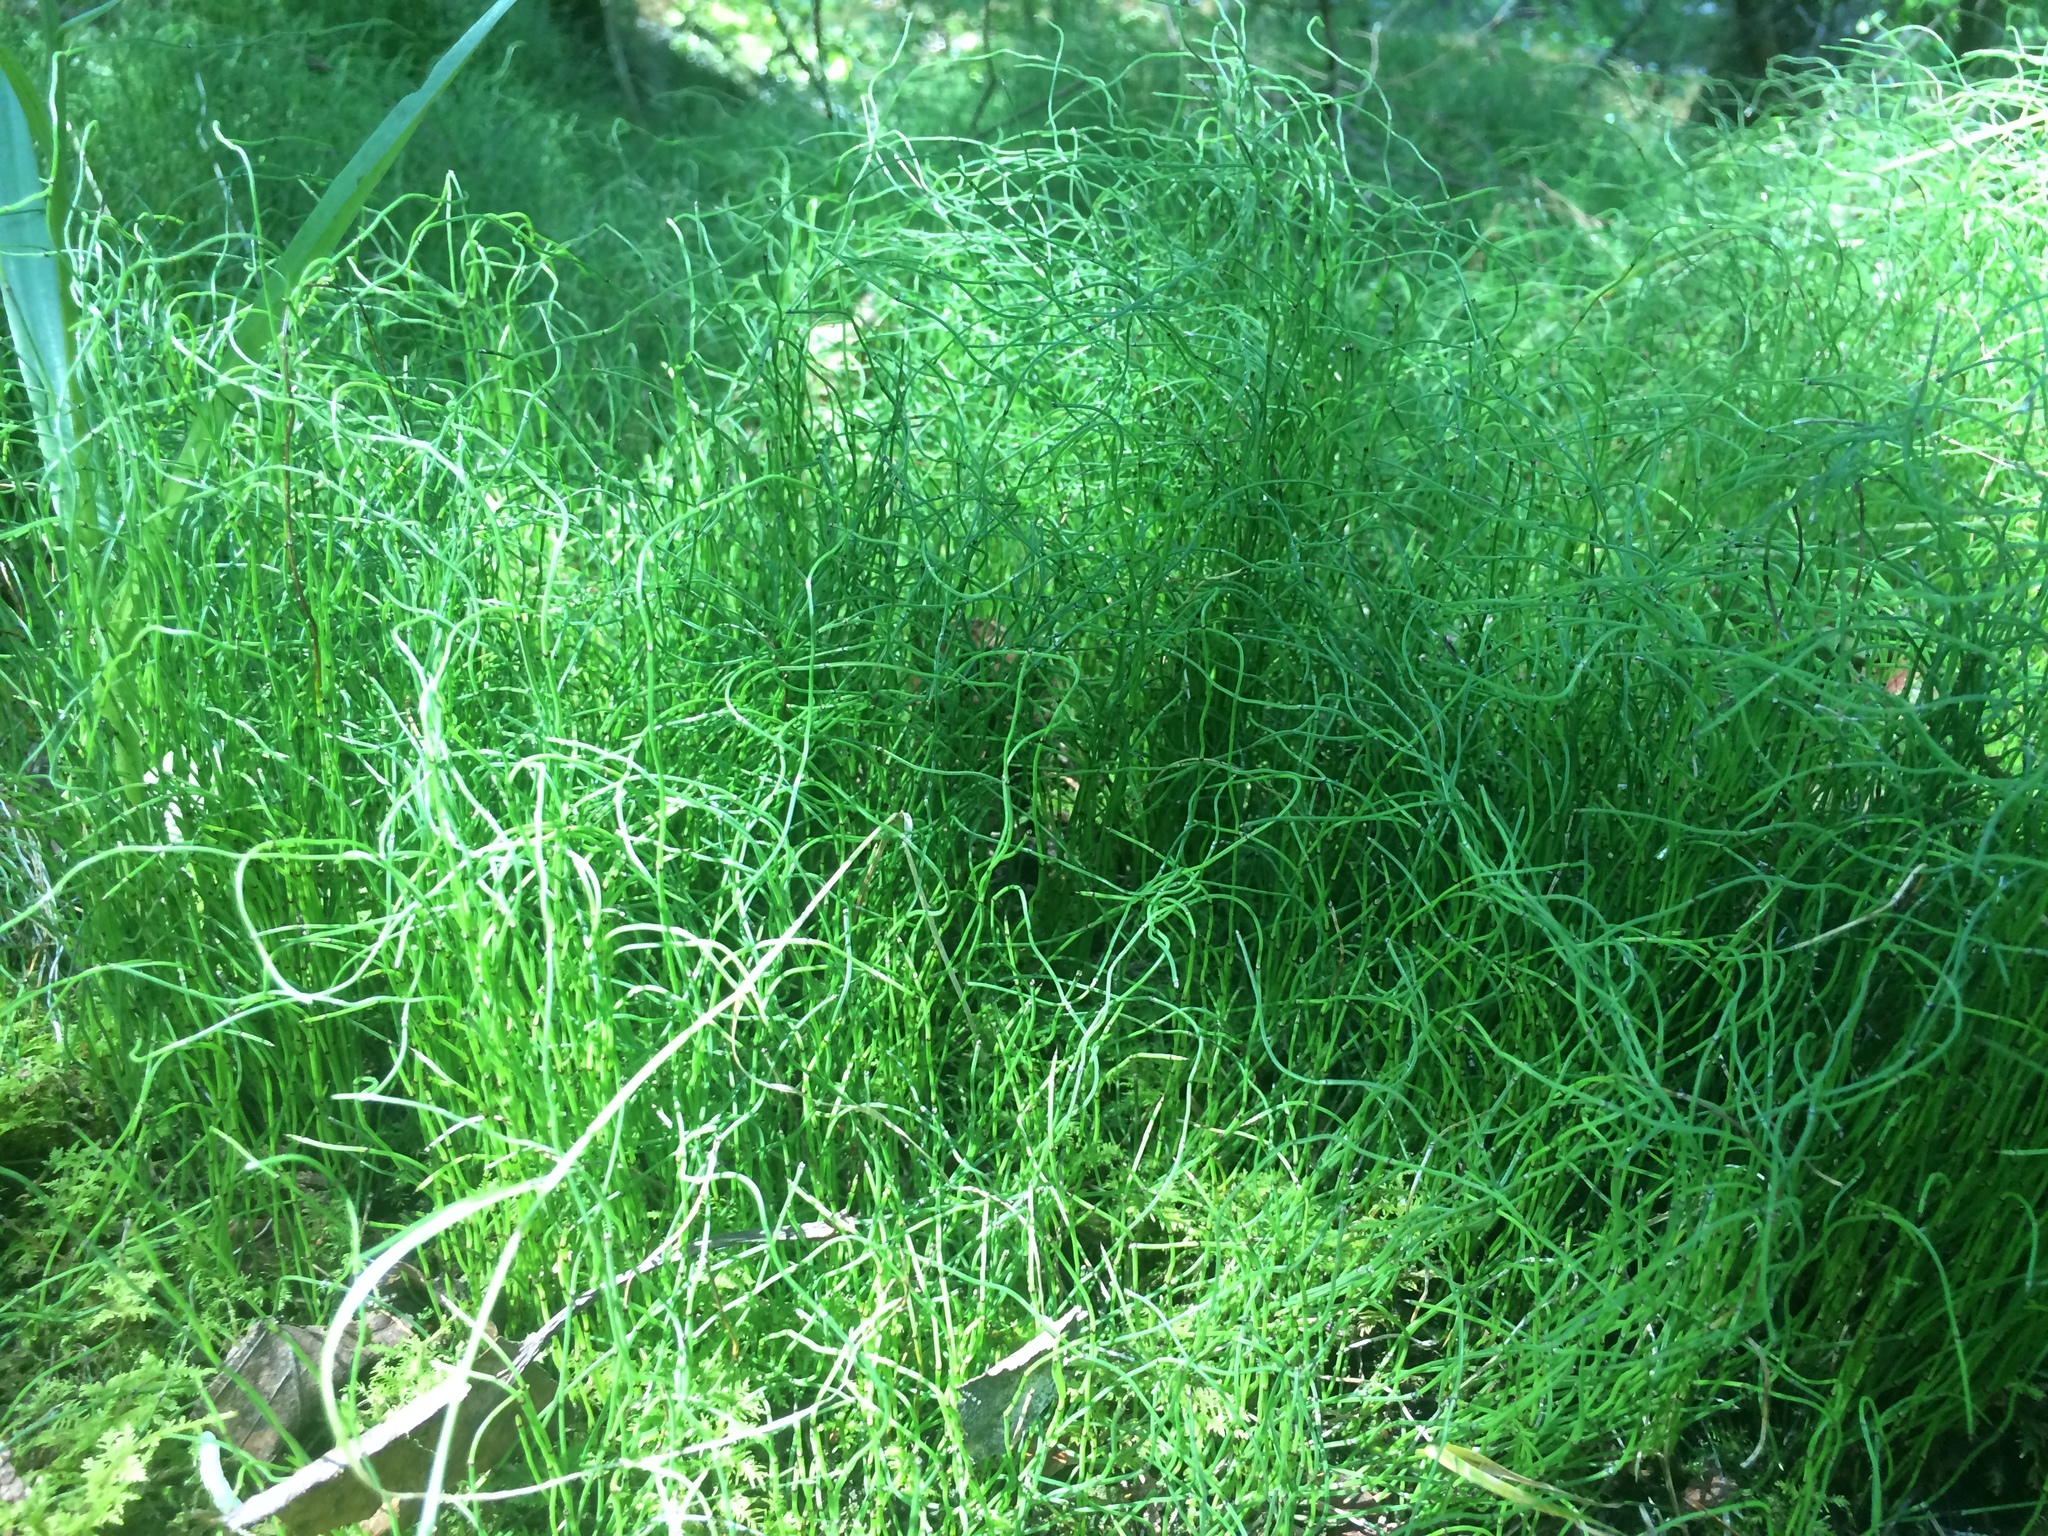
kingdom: Plantae
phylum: Tracheophyta
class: Polypodiopsida
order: Equisetales
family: Equisetaceae
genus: Equisetum
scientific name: Equisetum scirpoides
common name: Delicate horsetail
